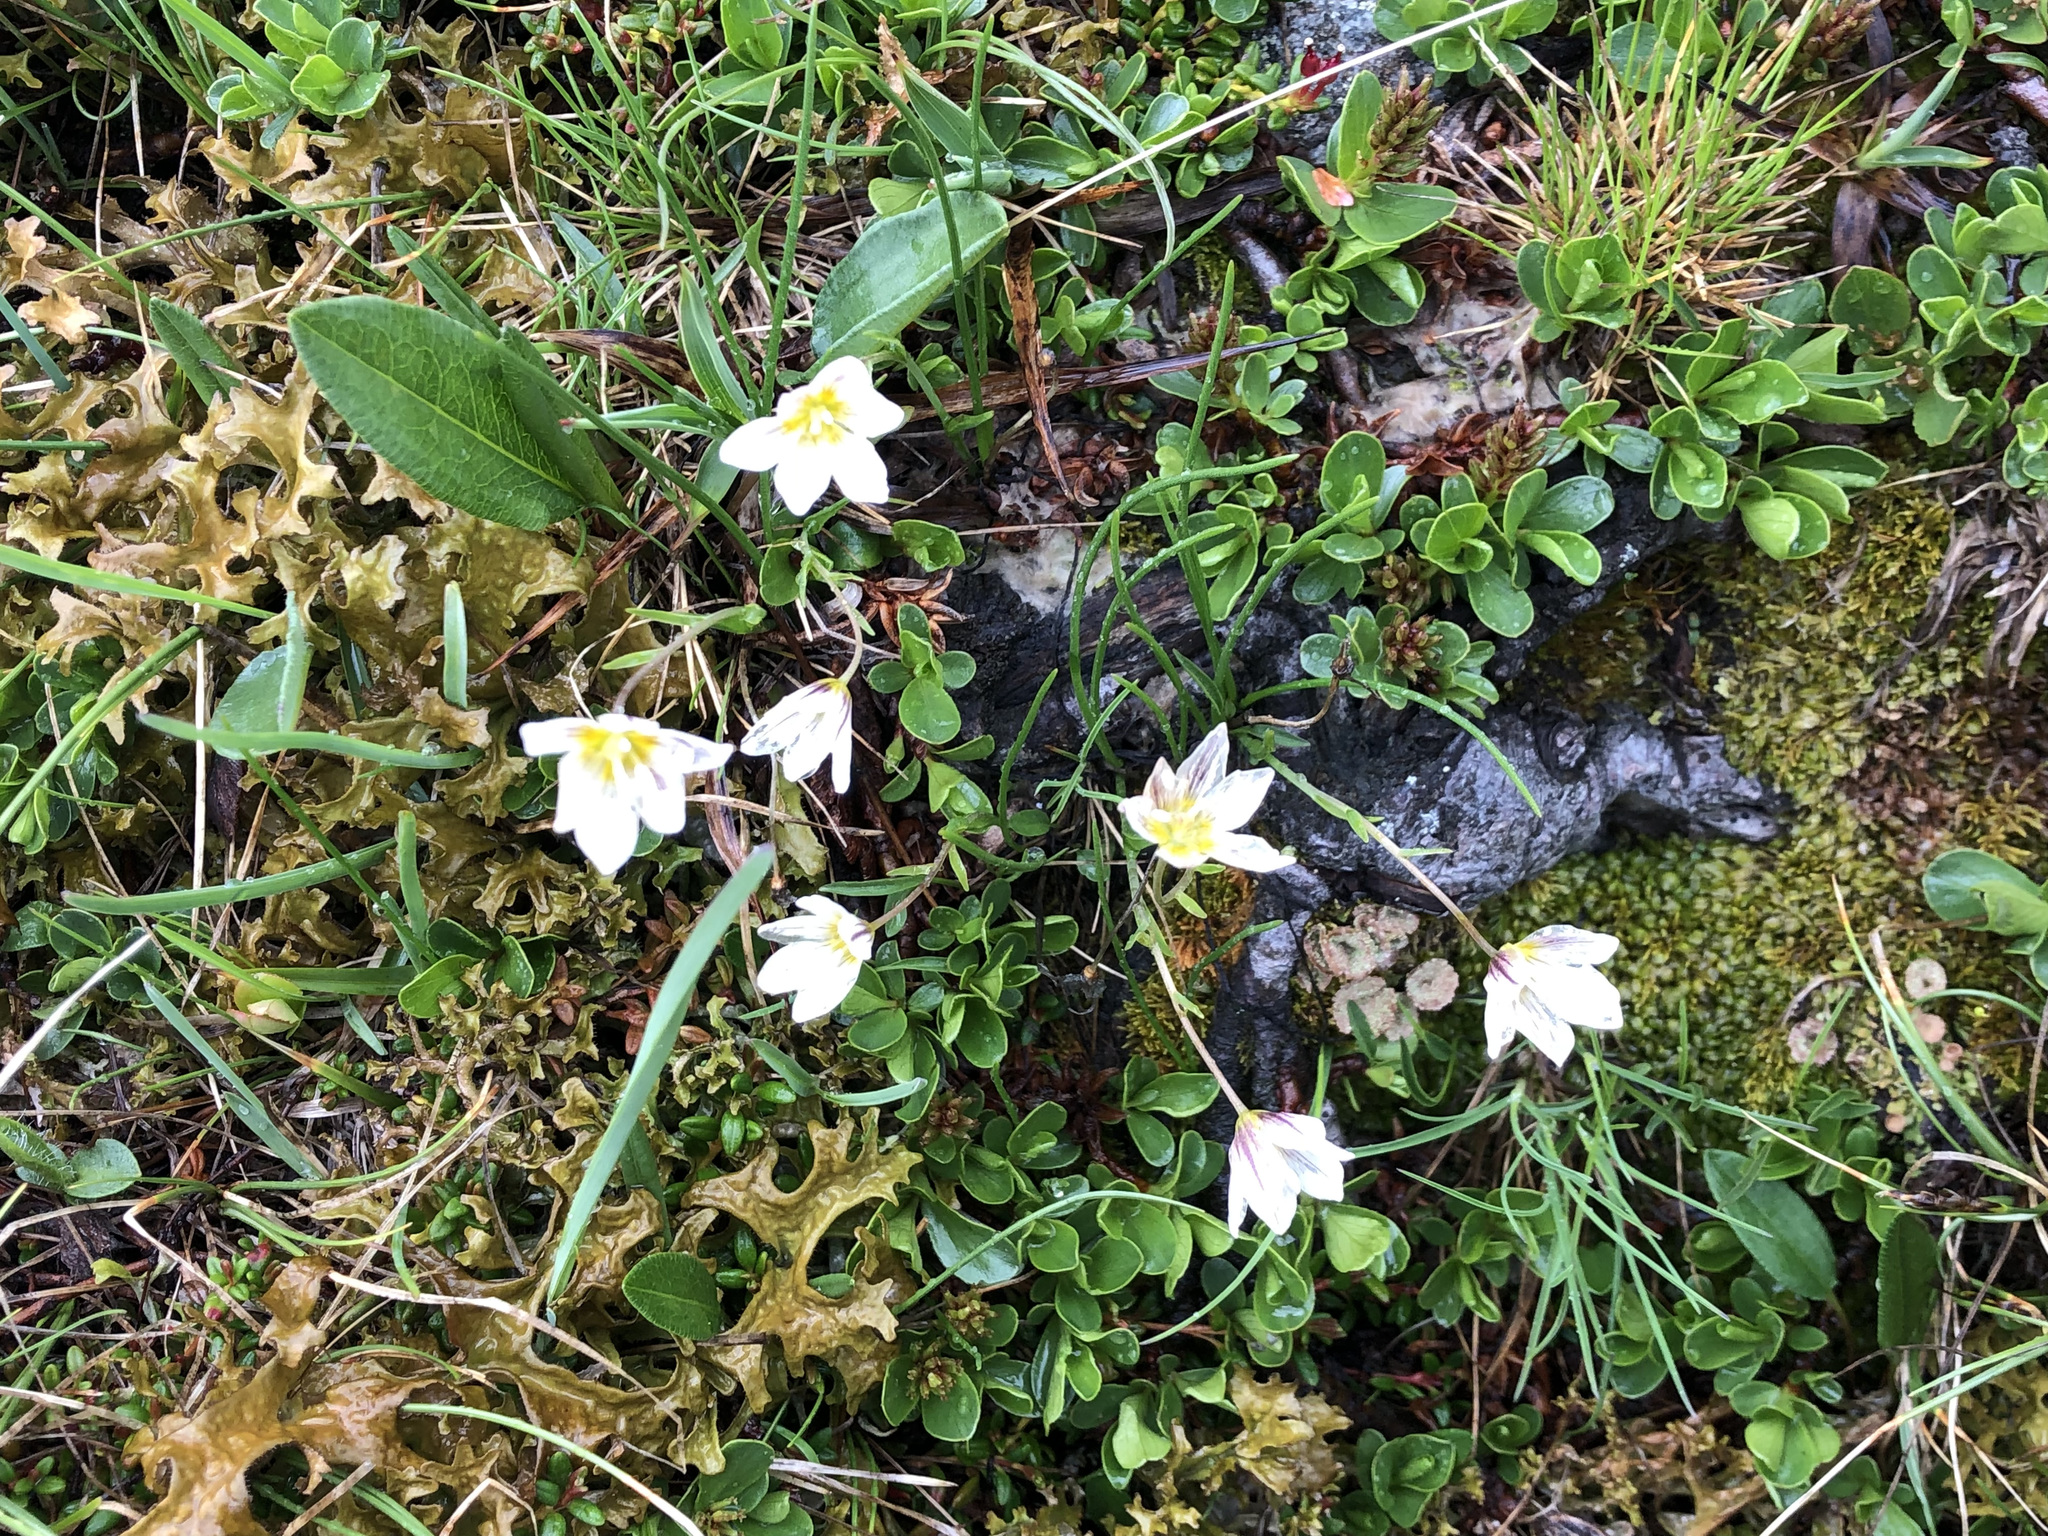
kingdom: Plantae
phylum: Tracheophyta
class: Liliopsida
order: Liliales
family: Liliaceae
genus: Gagea
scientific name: Gagea serotina
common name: Snowdon lily
